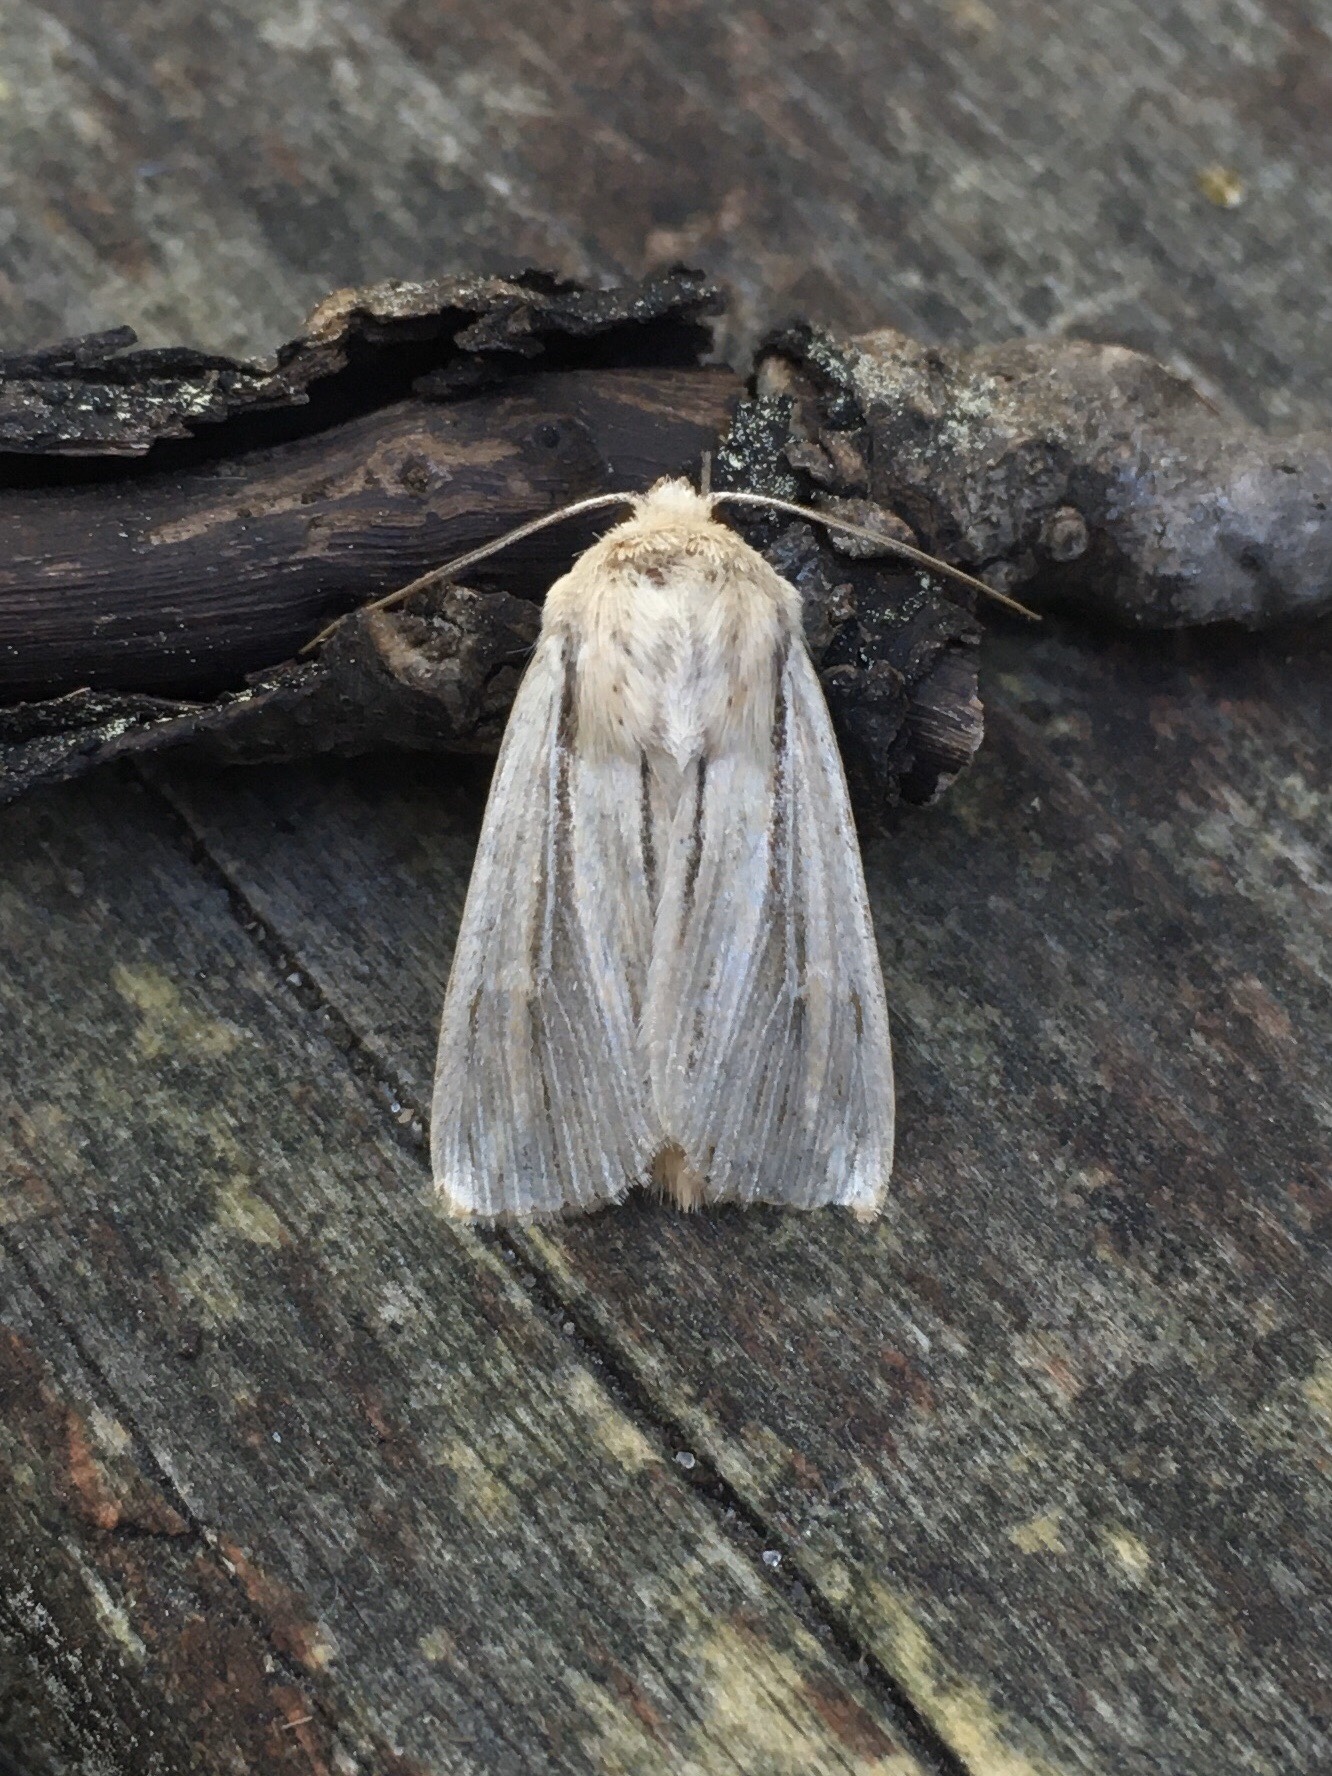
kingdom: Animalia
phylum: Arthropoda
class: Insecta
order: Lepidoptera
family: Noctuidae
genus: Leucania
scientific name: Leucania commoides
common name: Two-lined wainscot
